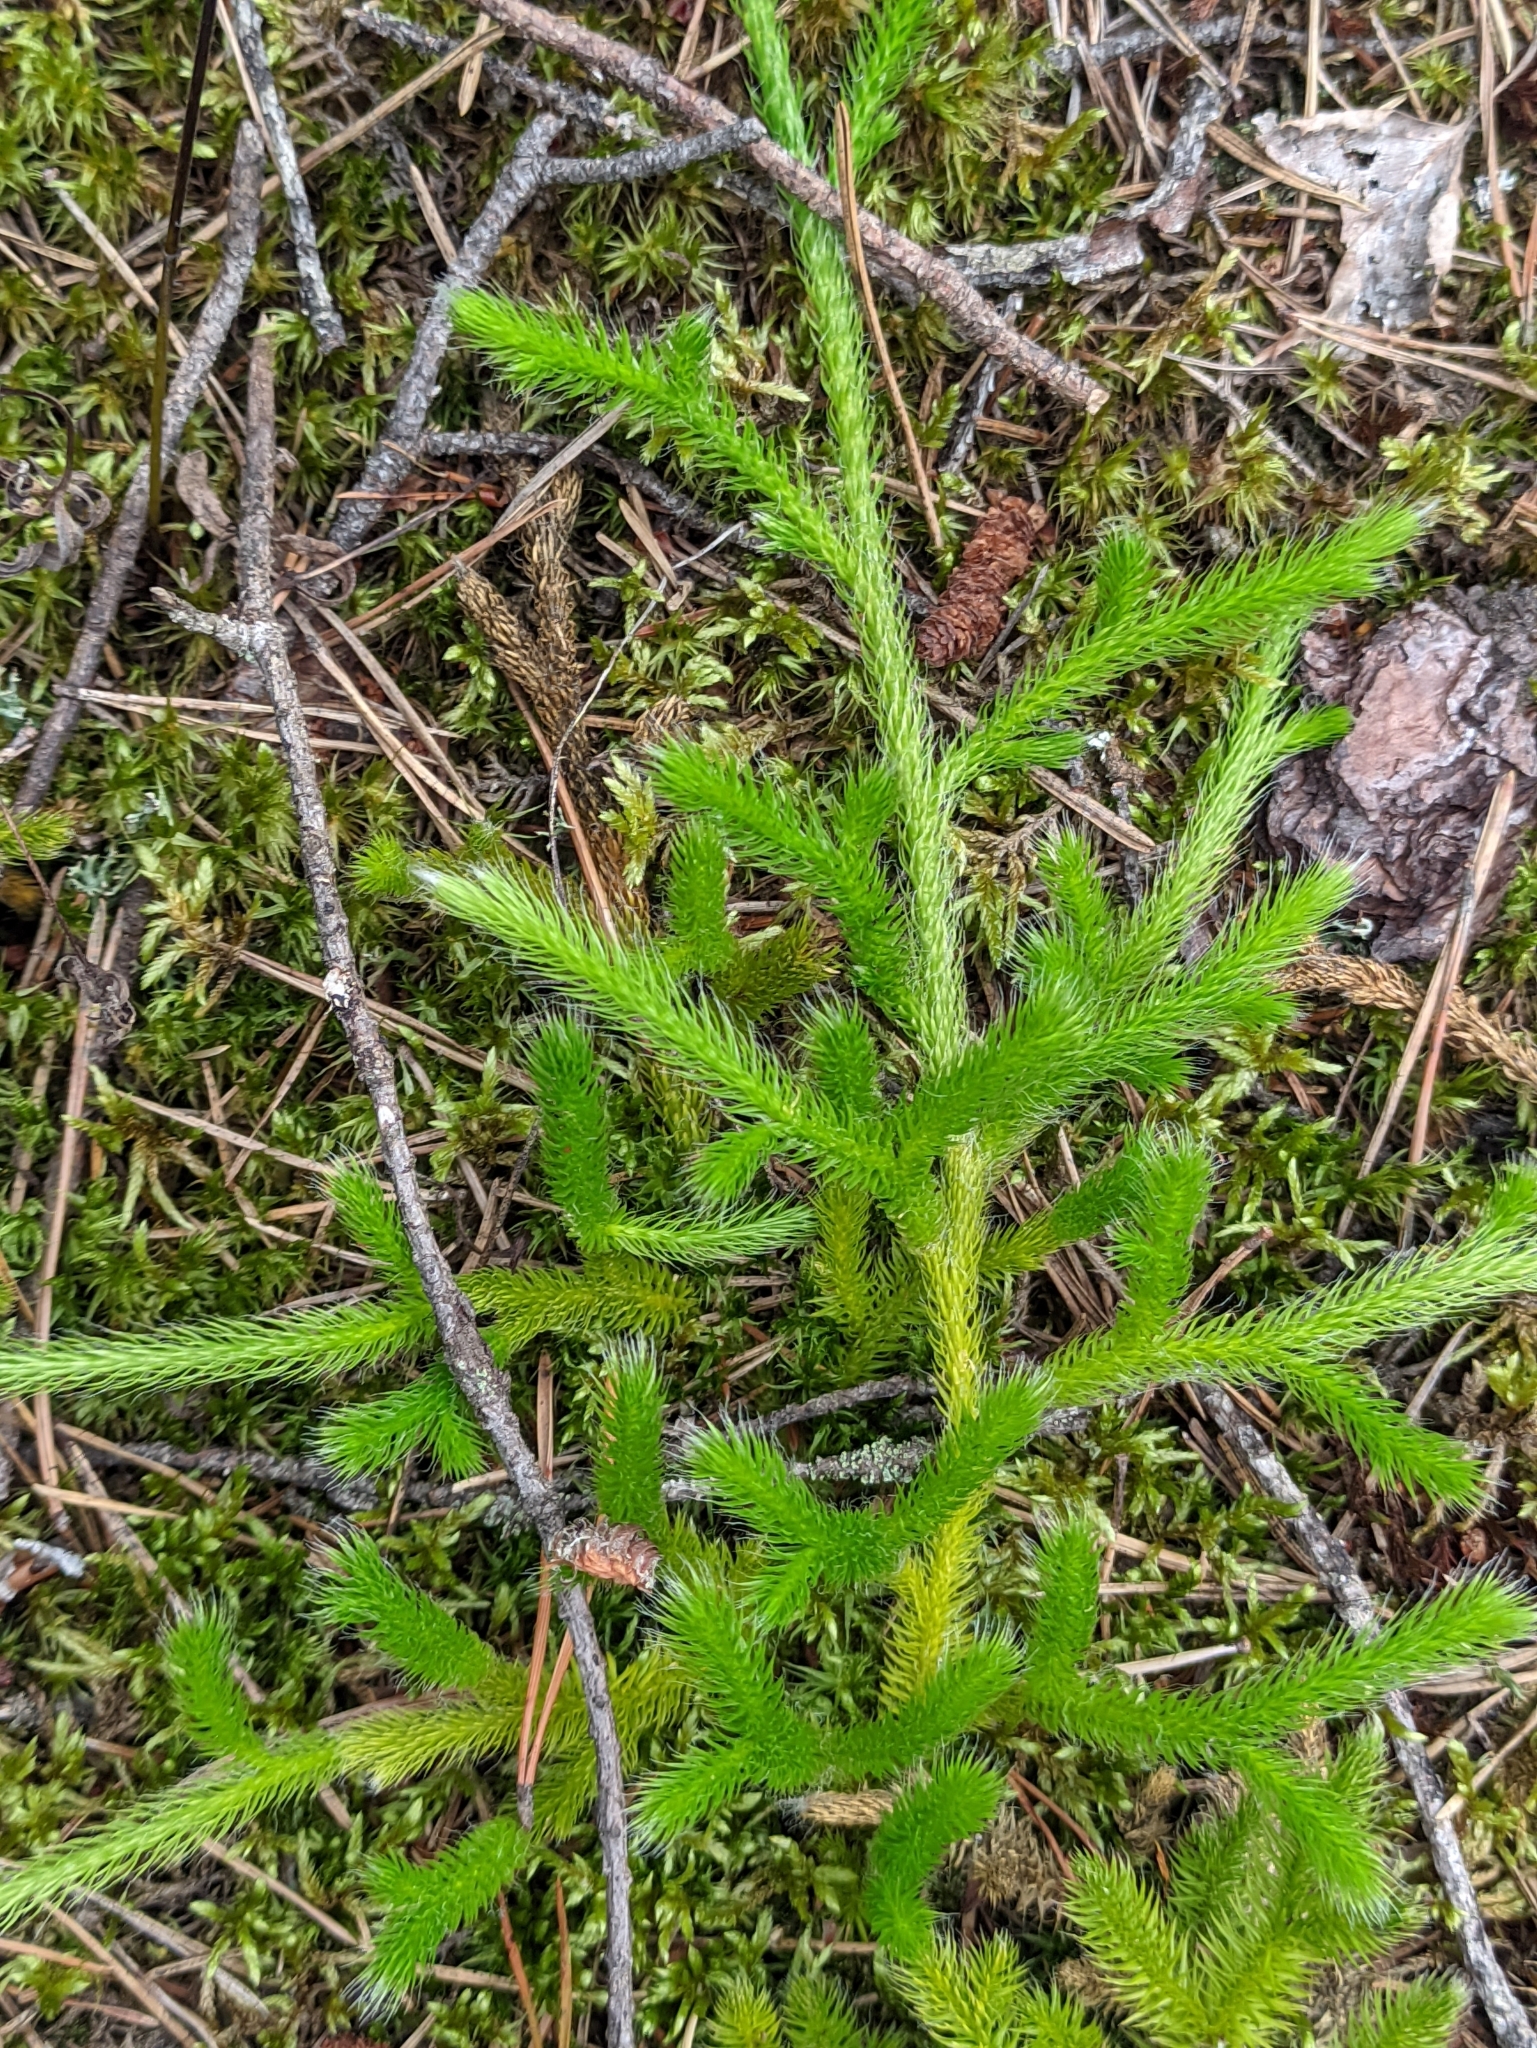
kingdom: Plantae
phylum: Tracheophyta
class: Lycopodiopsida
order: Lycopodiales
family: Lycopodiaceae
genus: Lycopodium
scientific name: Lycopodium clavatum
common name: Stag's-horn clubmoss
